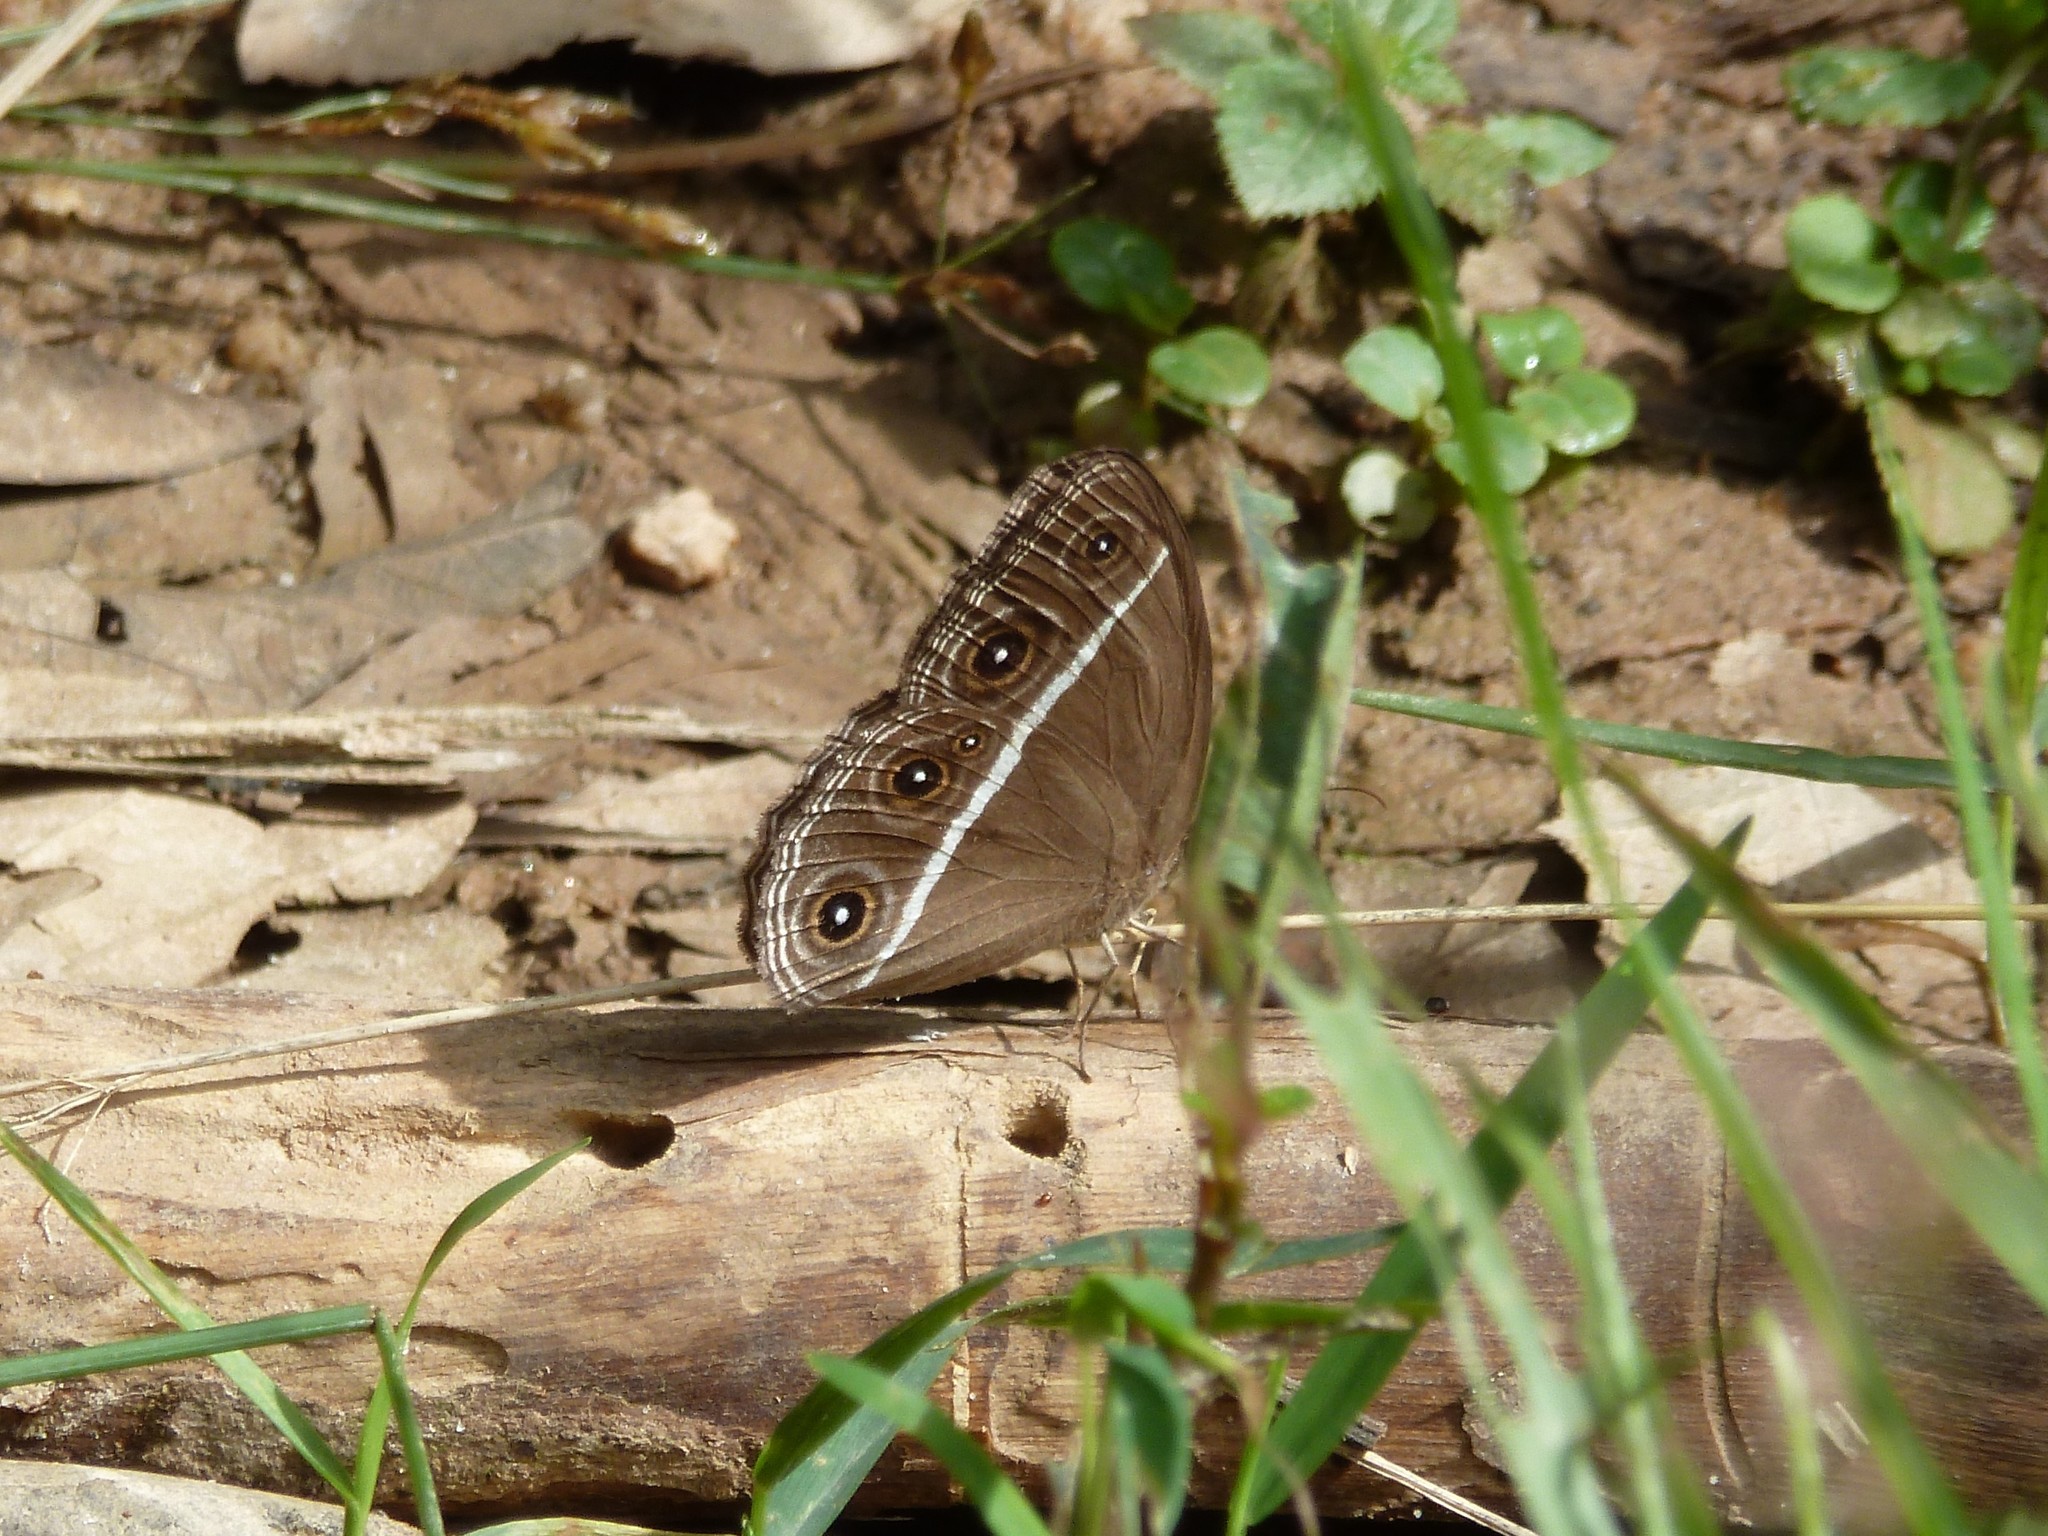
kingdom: Animalia
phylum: Arthropoda
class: Insecta
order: Lepidoptera
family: Nymphalidae
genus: Orsotriaena
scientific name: Orsotriaena medus
